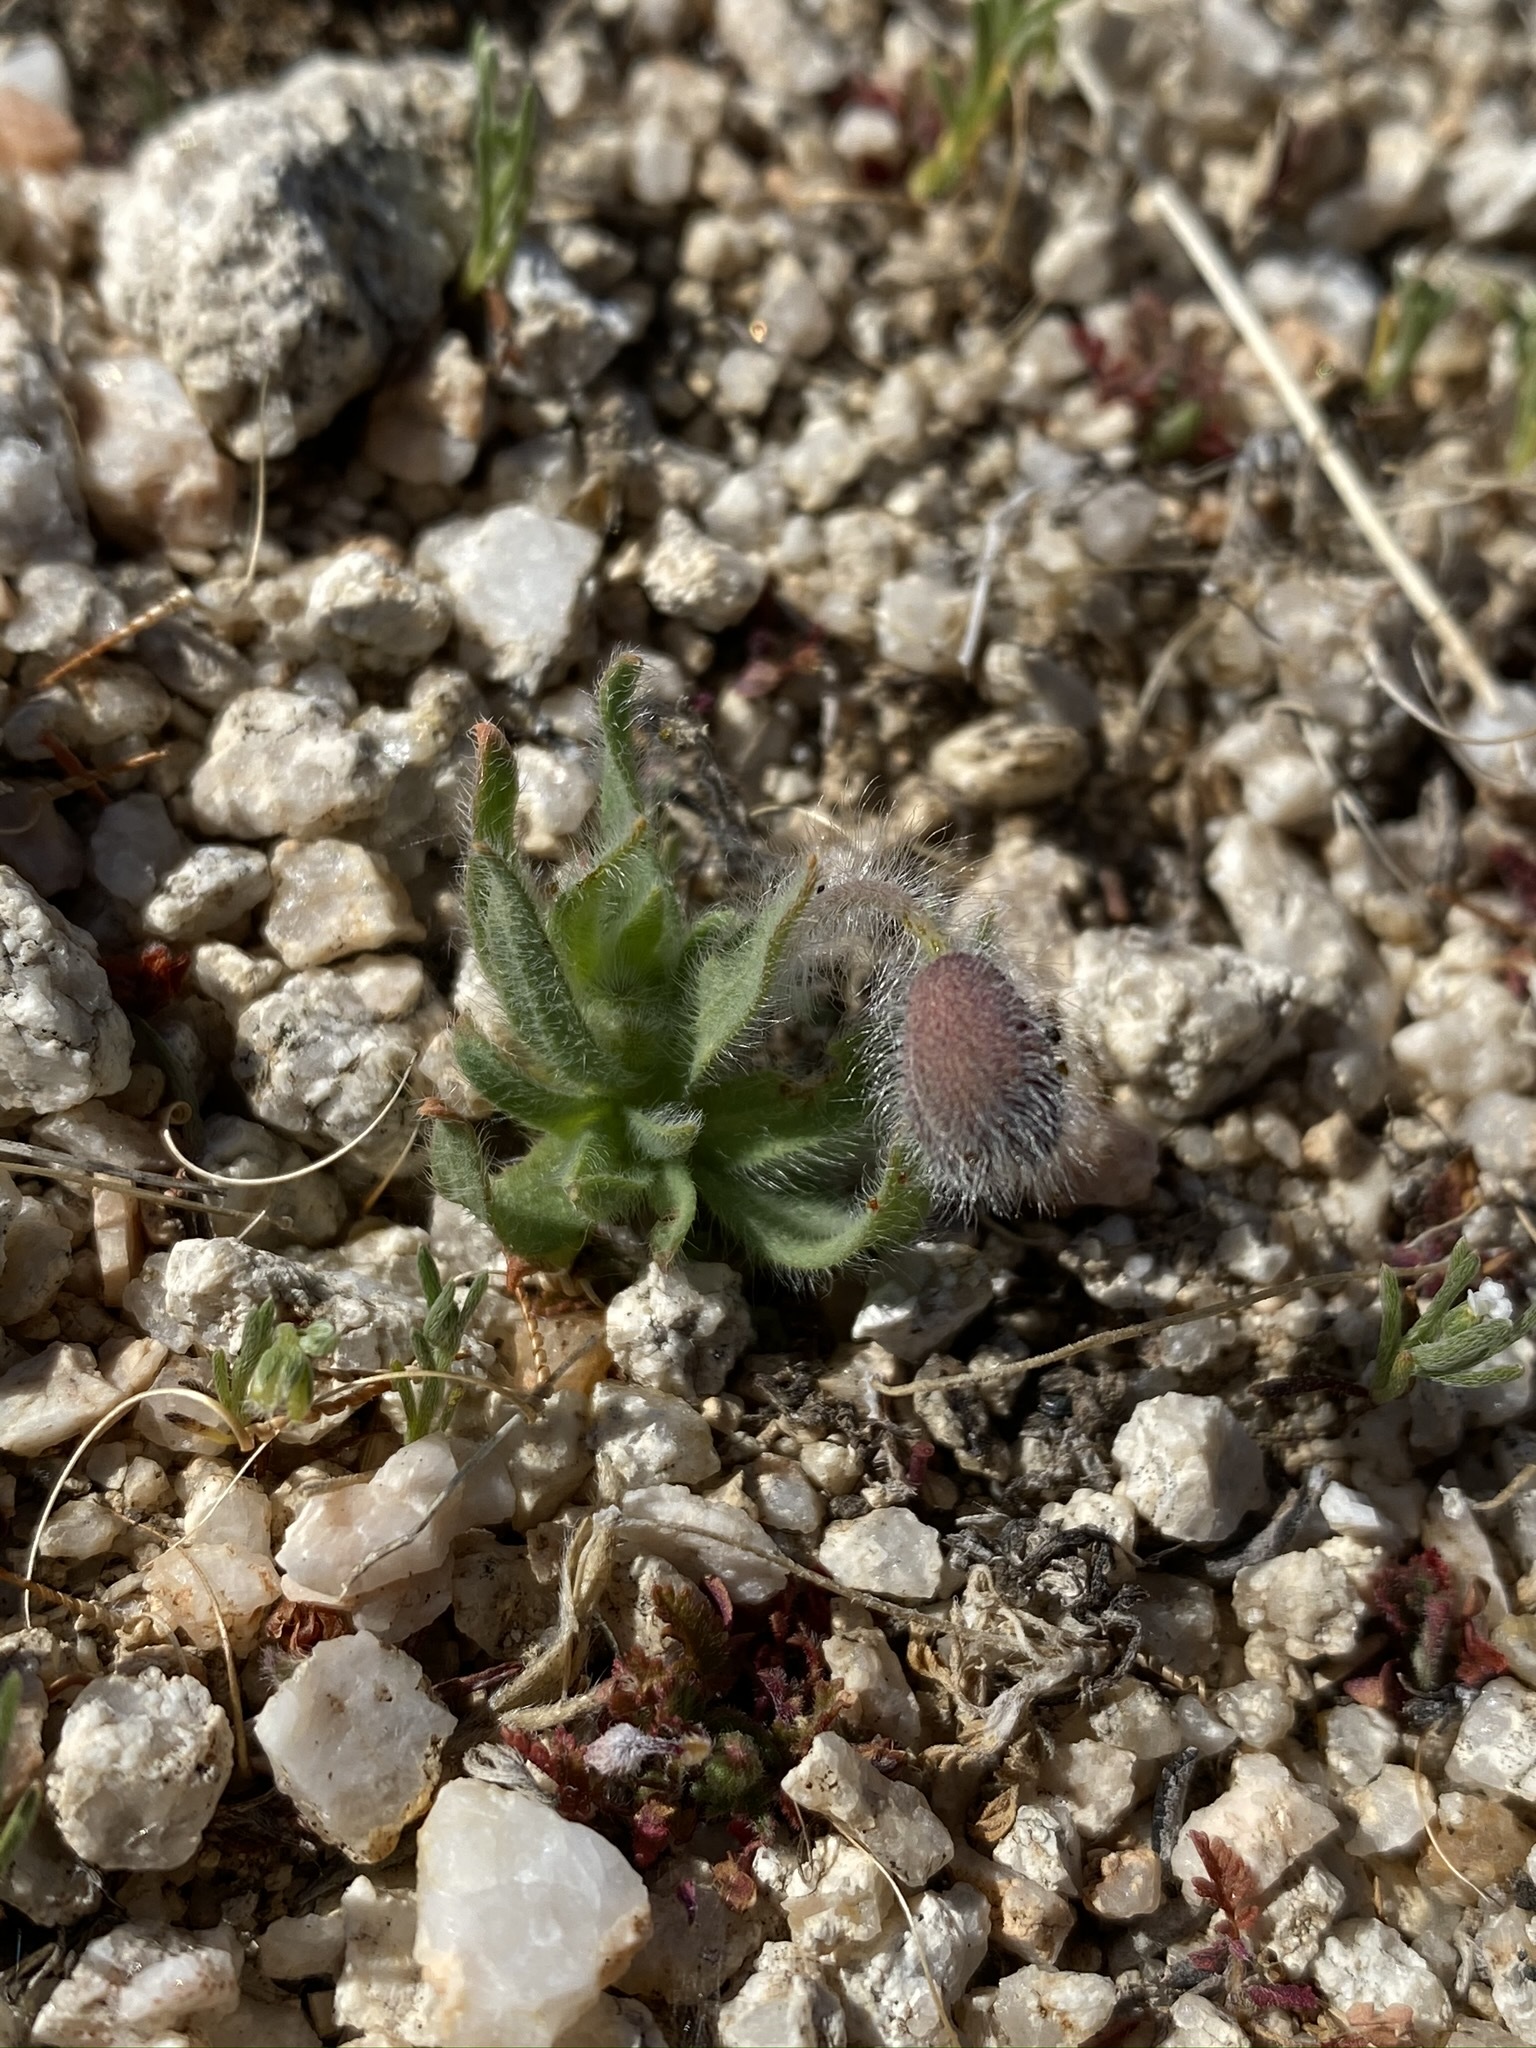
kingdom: Plantae
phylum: Tracheophyta
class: Magnoliopsida
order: Ranunculales
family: Papaveraceae
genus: Platystemon
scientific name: Platystemon californicus
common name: Cream-cups
